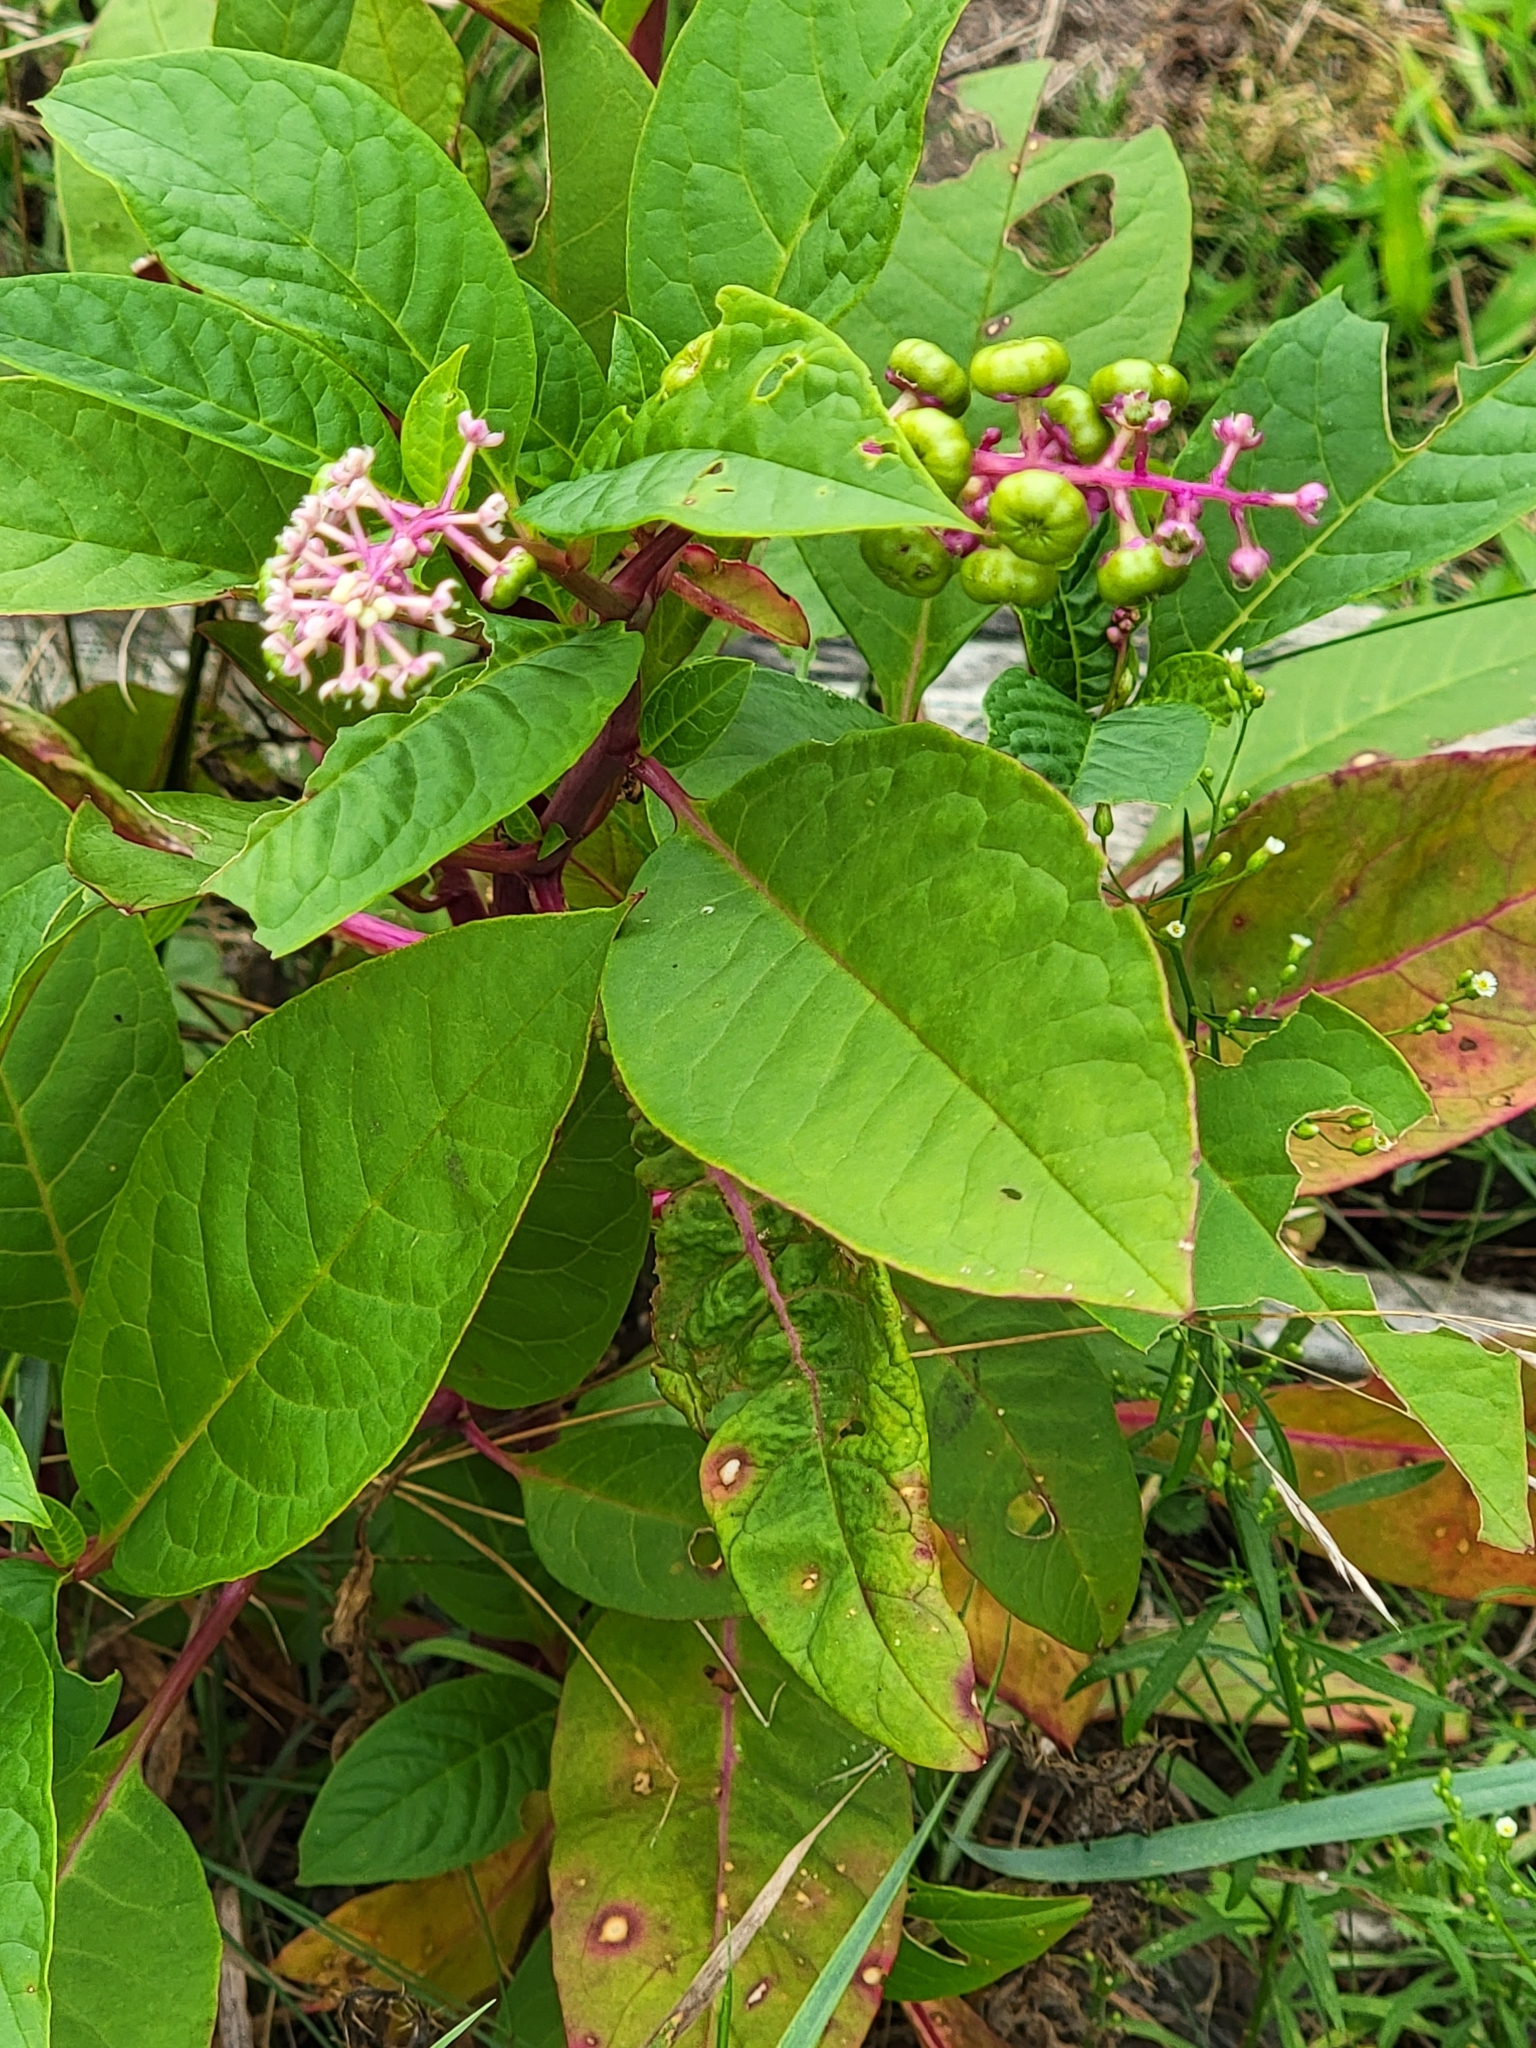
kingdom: Plantae
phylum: Tracheophyta
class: Magnoliopsida
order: Caryophyllales
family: Phytolaccaceae
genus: Phytolacca
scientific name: Phytolacca americana
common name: American pokeweed
